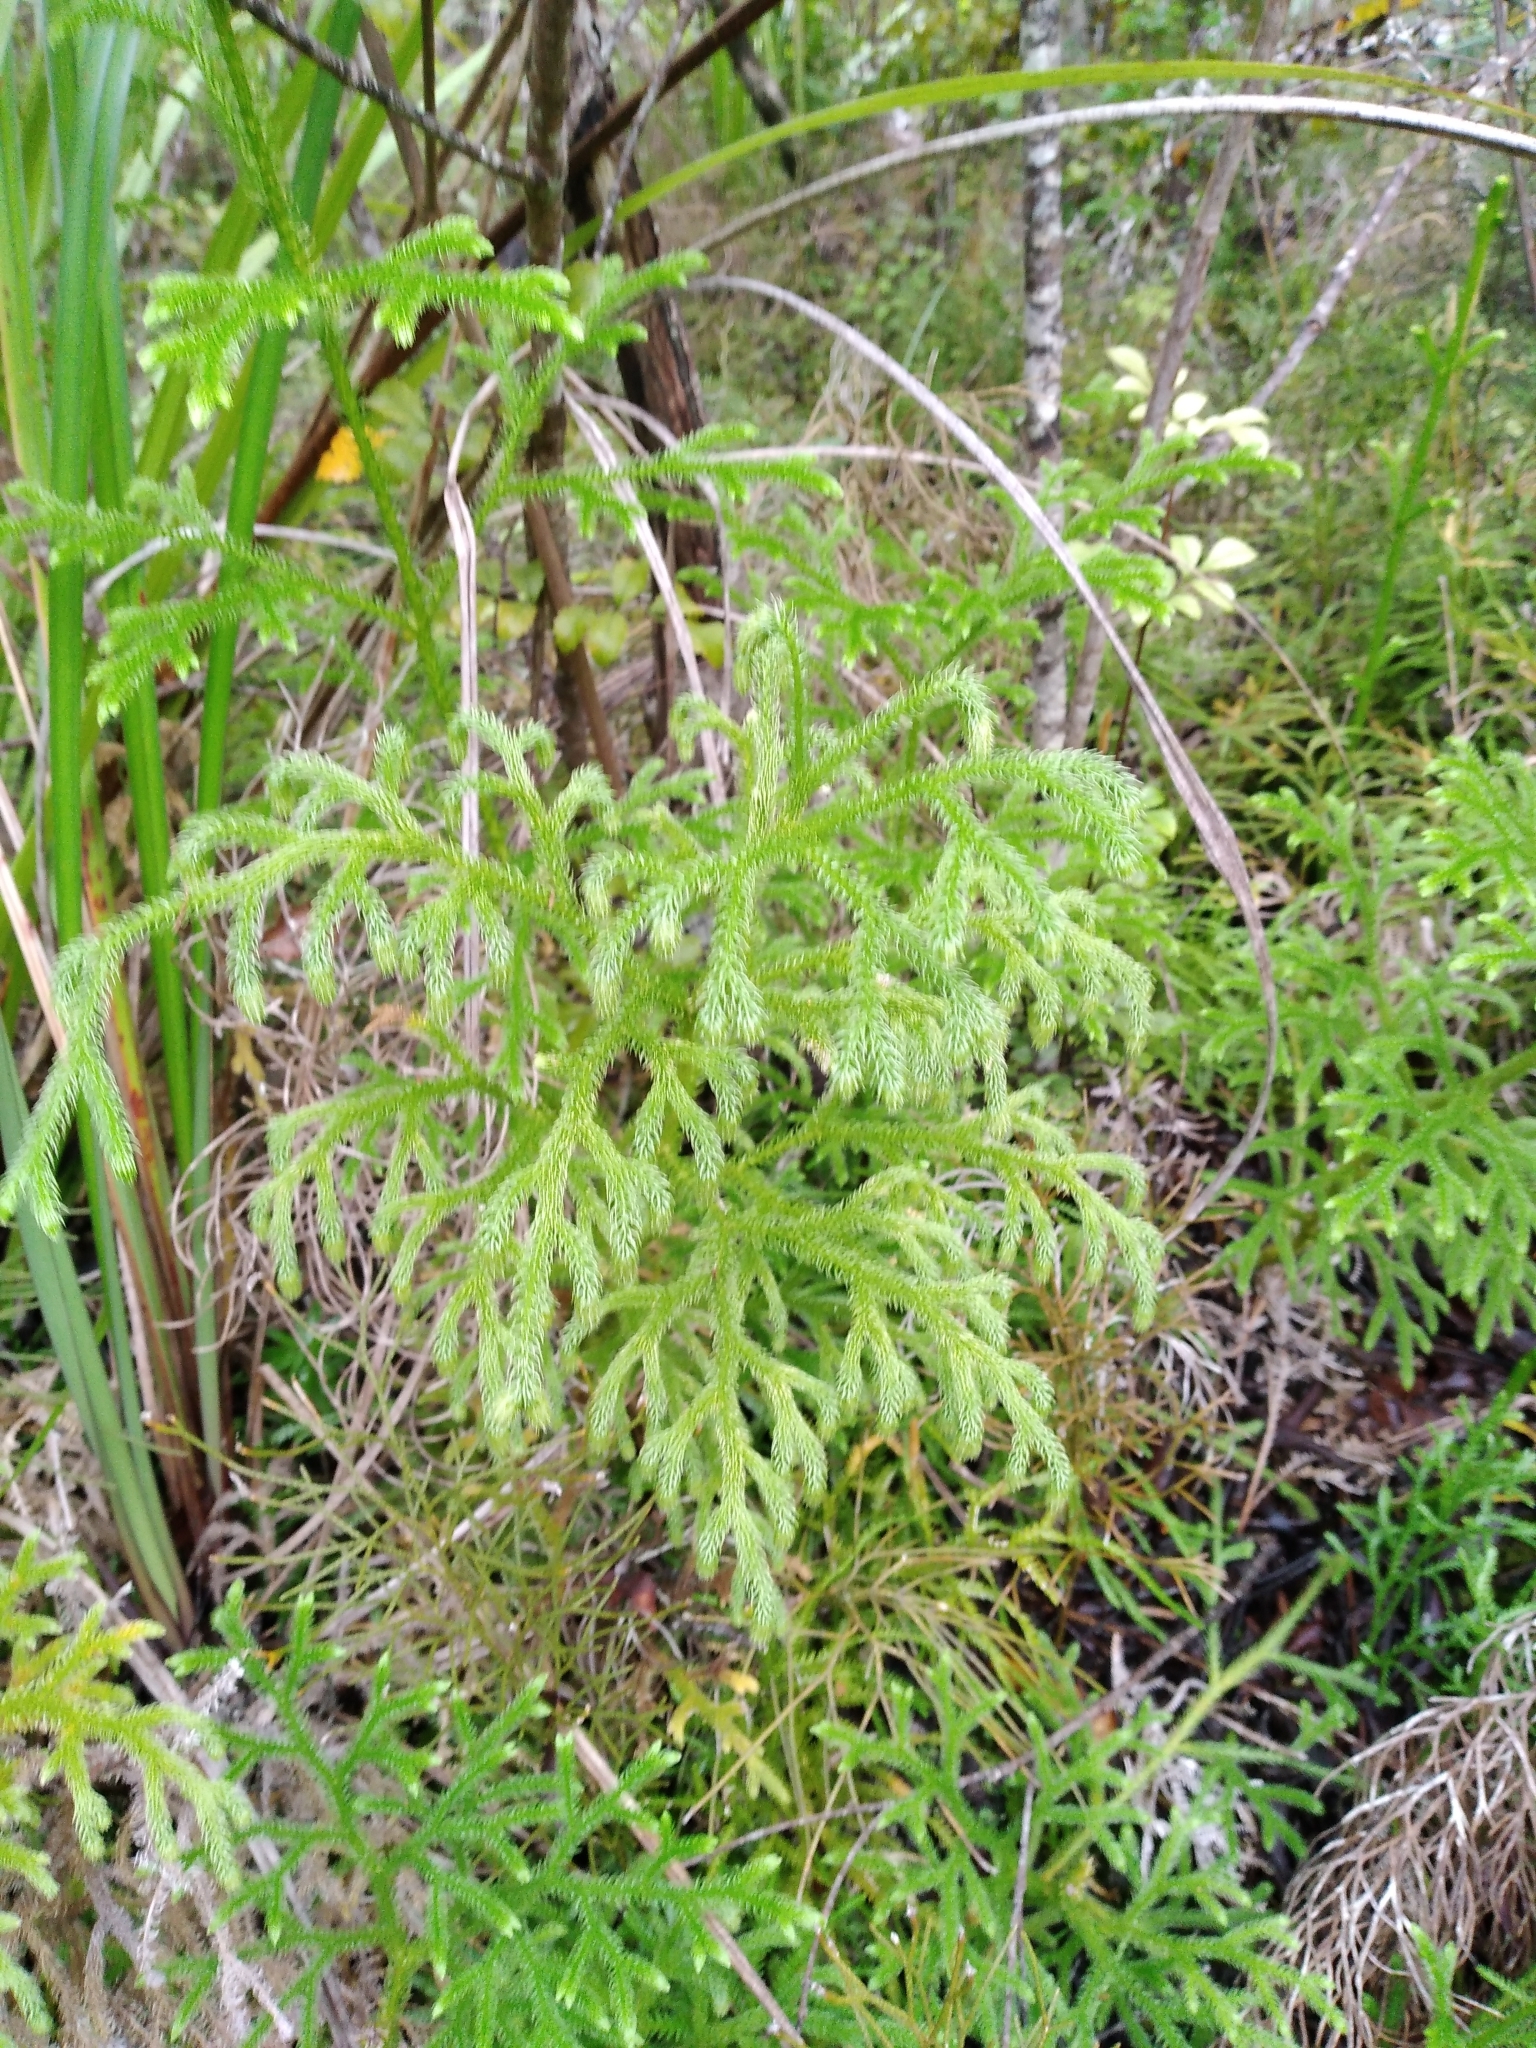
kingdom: Plantae
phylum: Tracheophyta
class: Lycopodiopsida
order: Lycopodiales
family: Lycopodiaceae
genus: Palhinhaea
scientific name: Palhinhaea cernua
